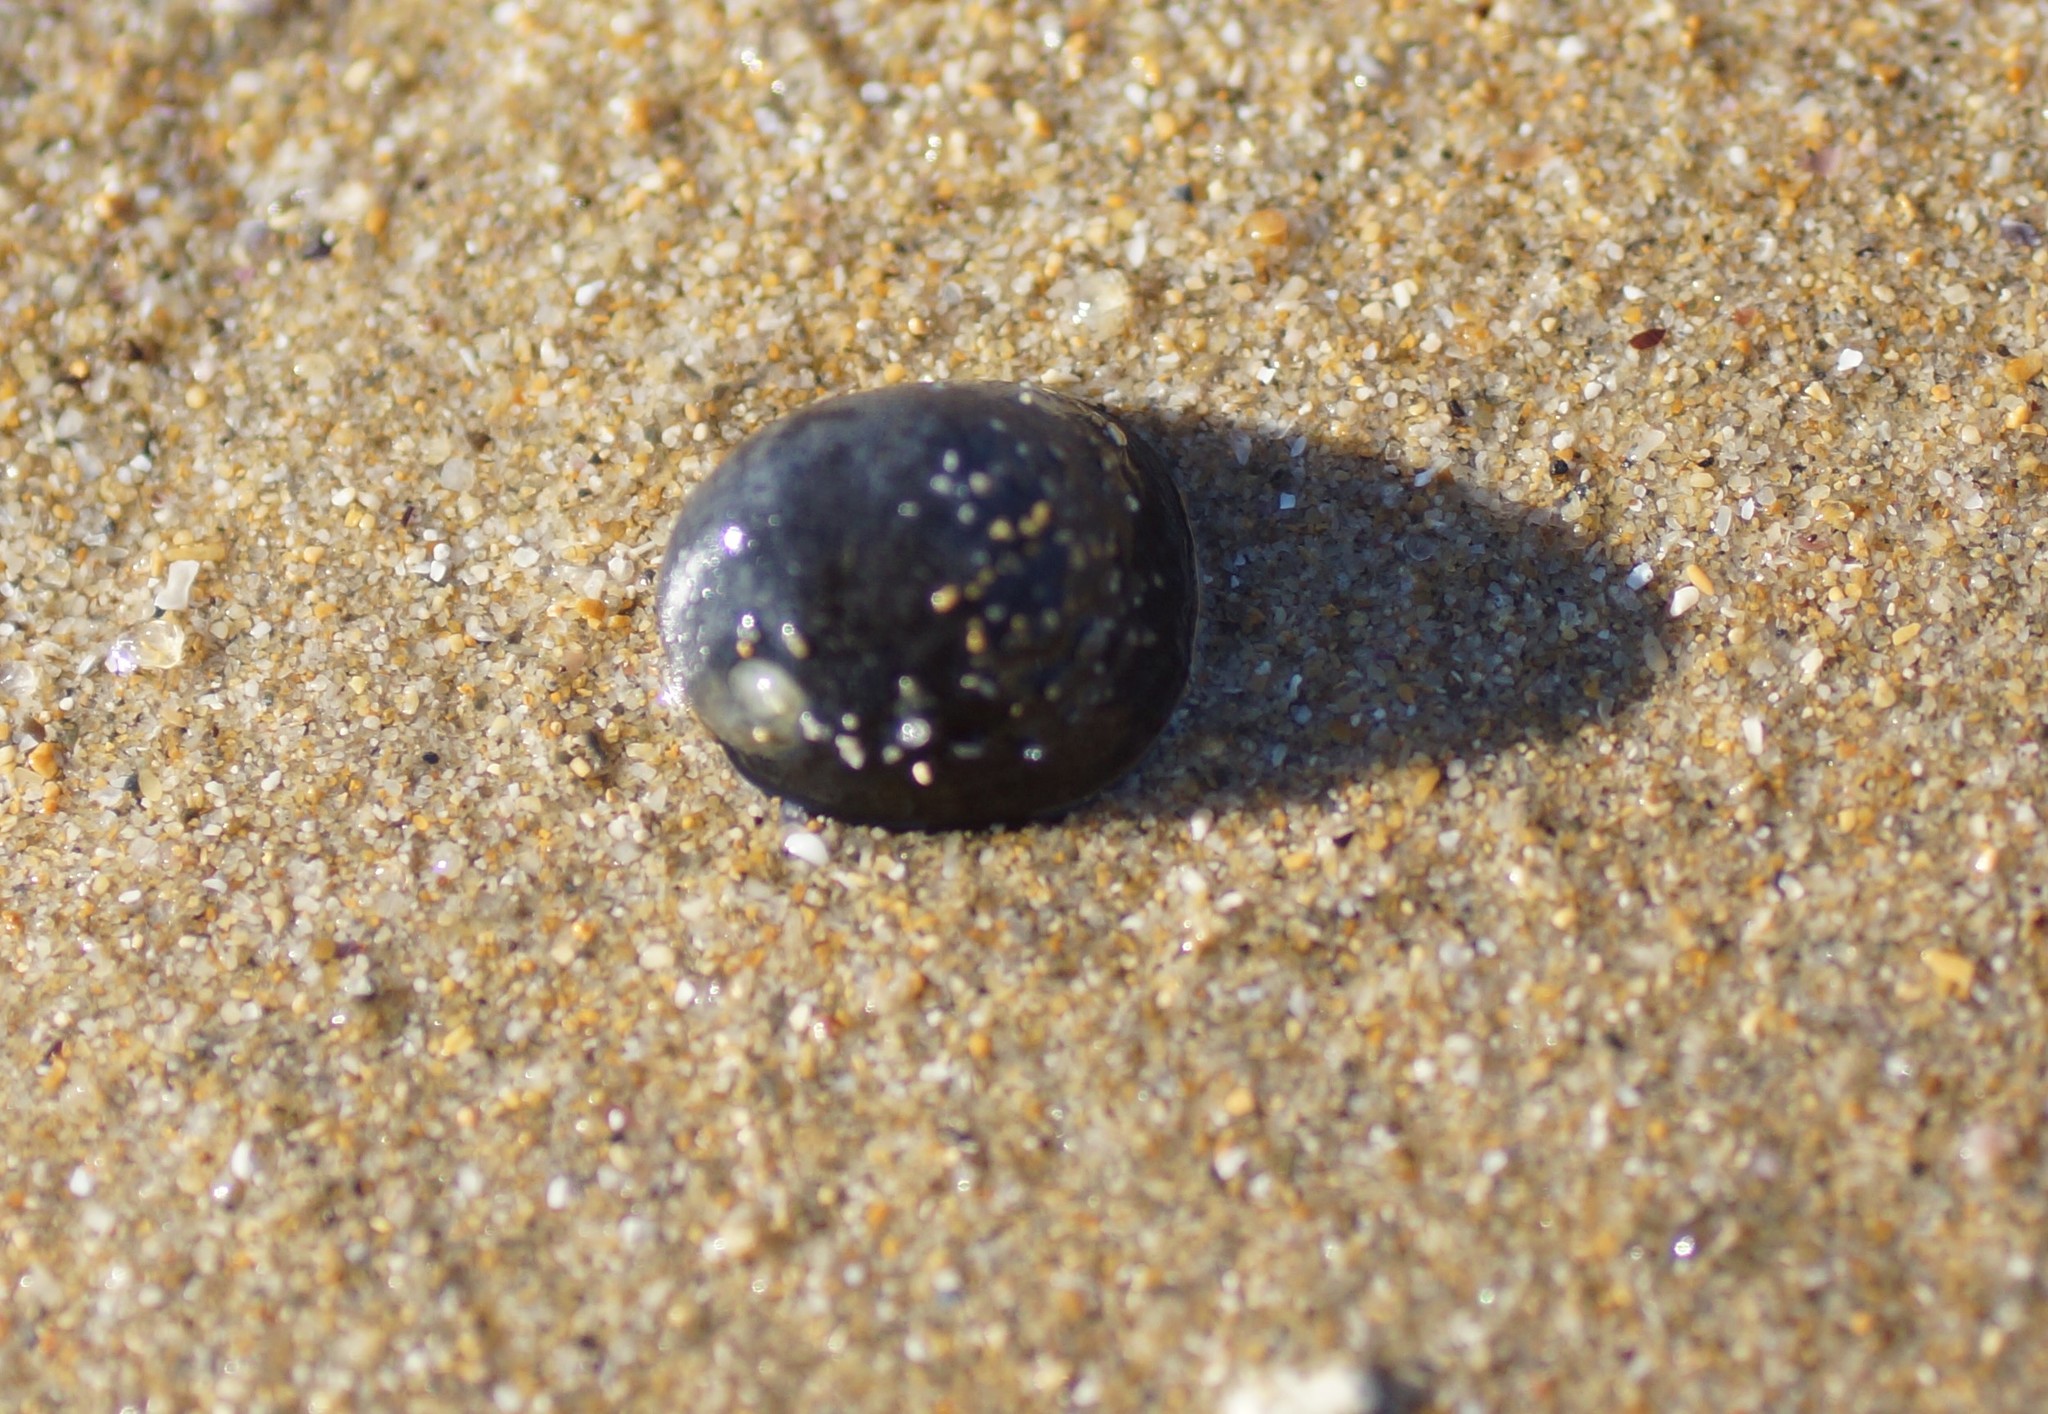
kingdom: Animalia
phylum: Mollusca
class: Gastropoda
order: Cycloneritida
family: Neritidae
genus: Nerita
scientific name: Nerita atramentosa
